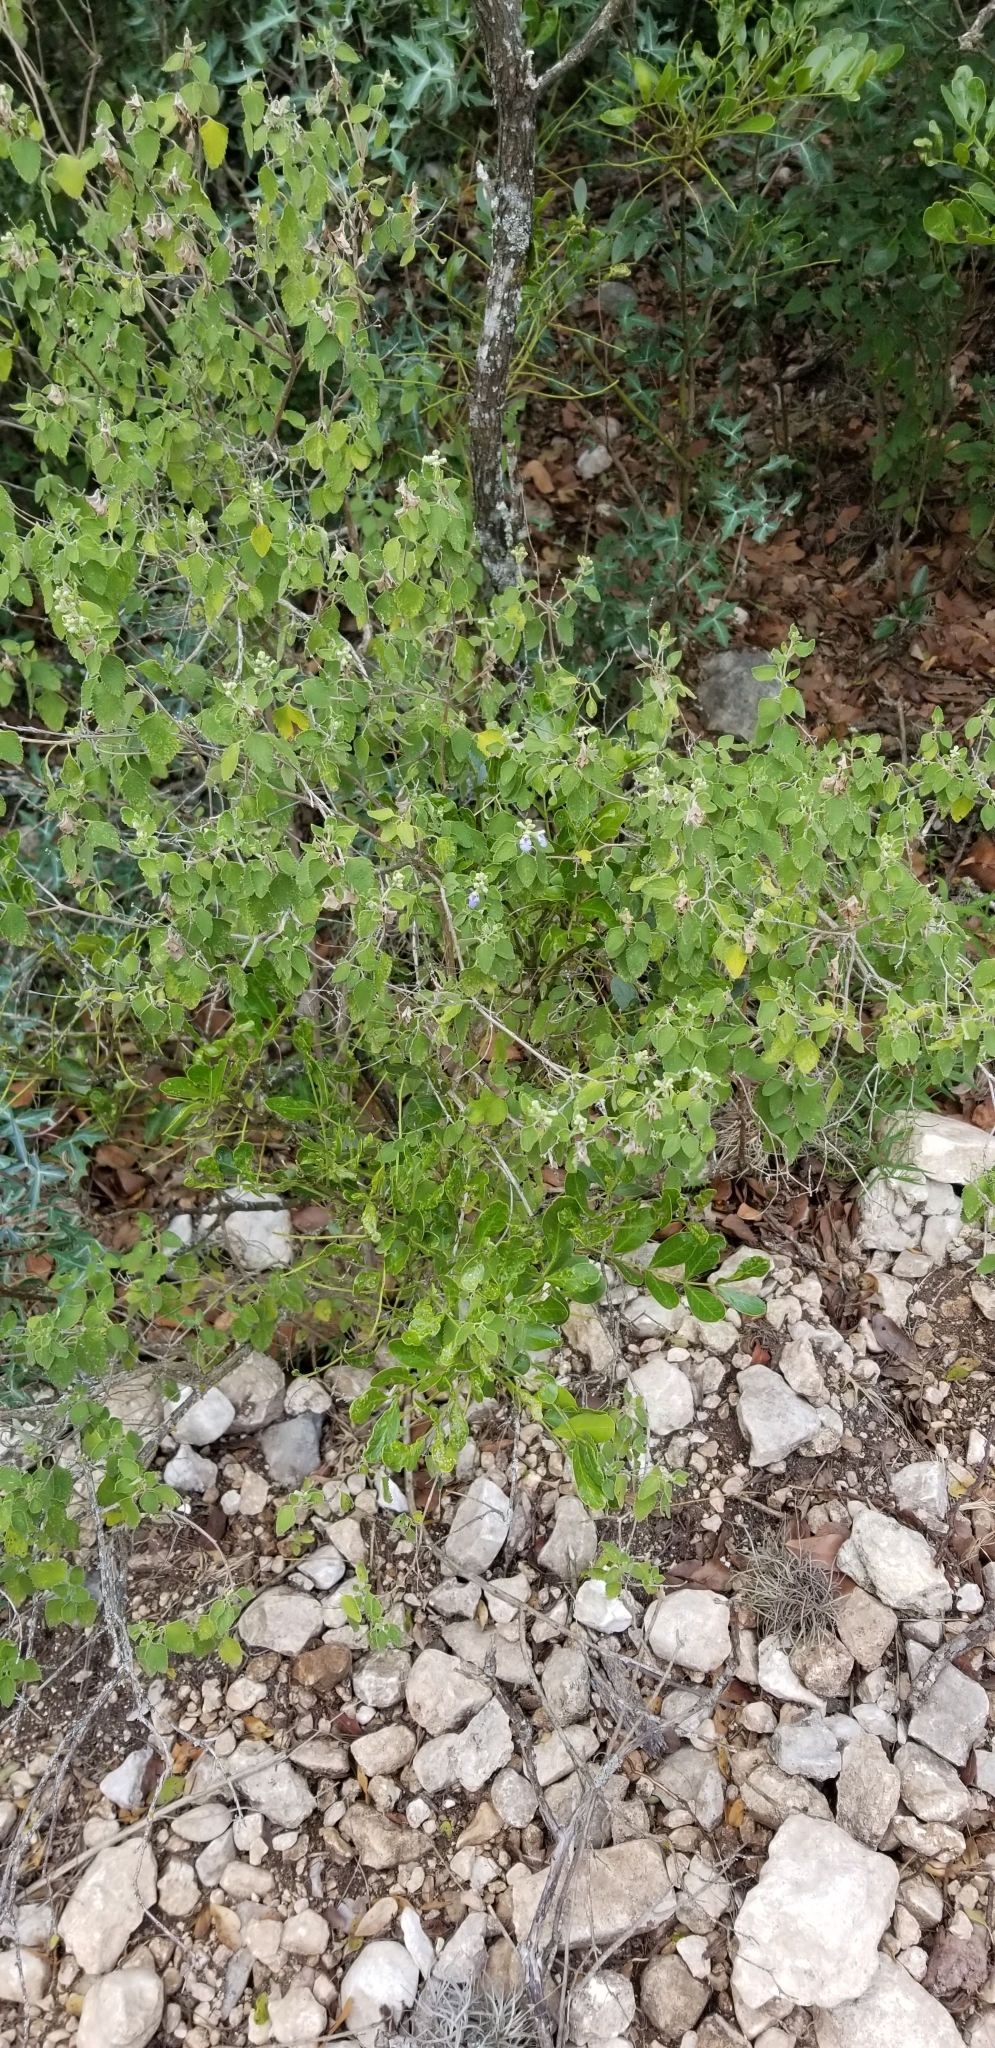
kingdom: Plantae
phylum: Tracheophyta
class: Magnoliopsida
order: Lamiales
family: Lamiaceae
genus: Salvia
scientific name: Salvia ballotiflora
